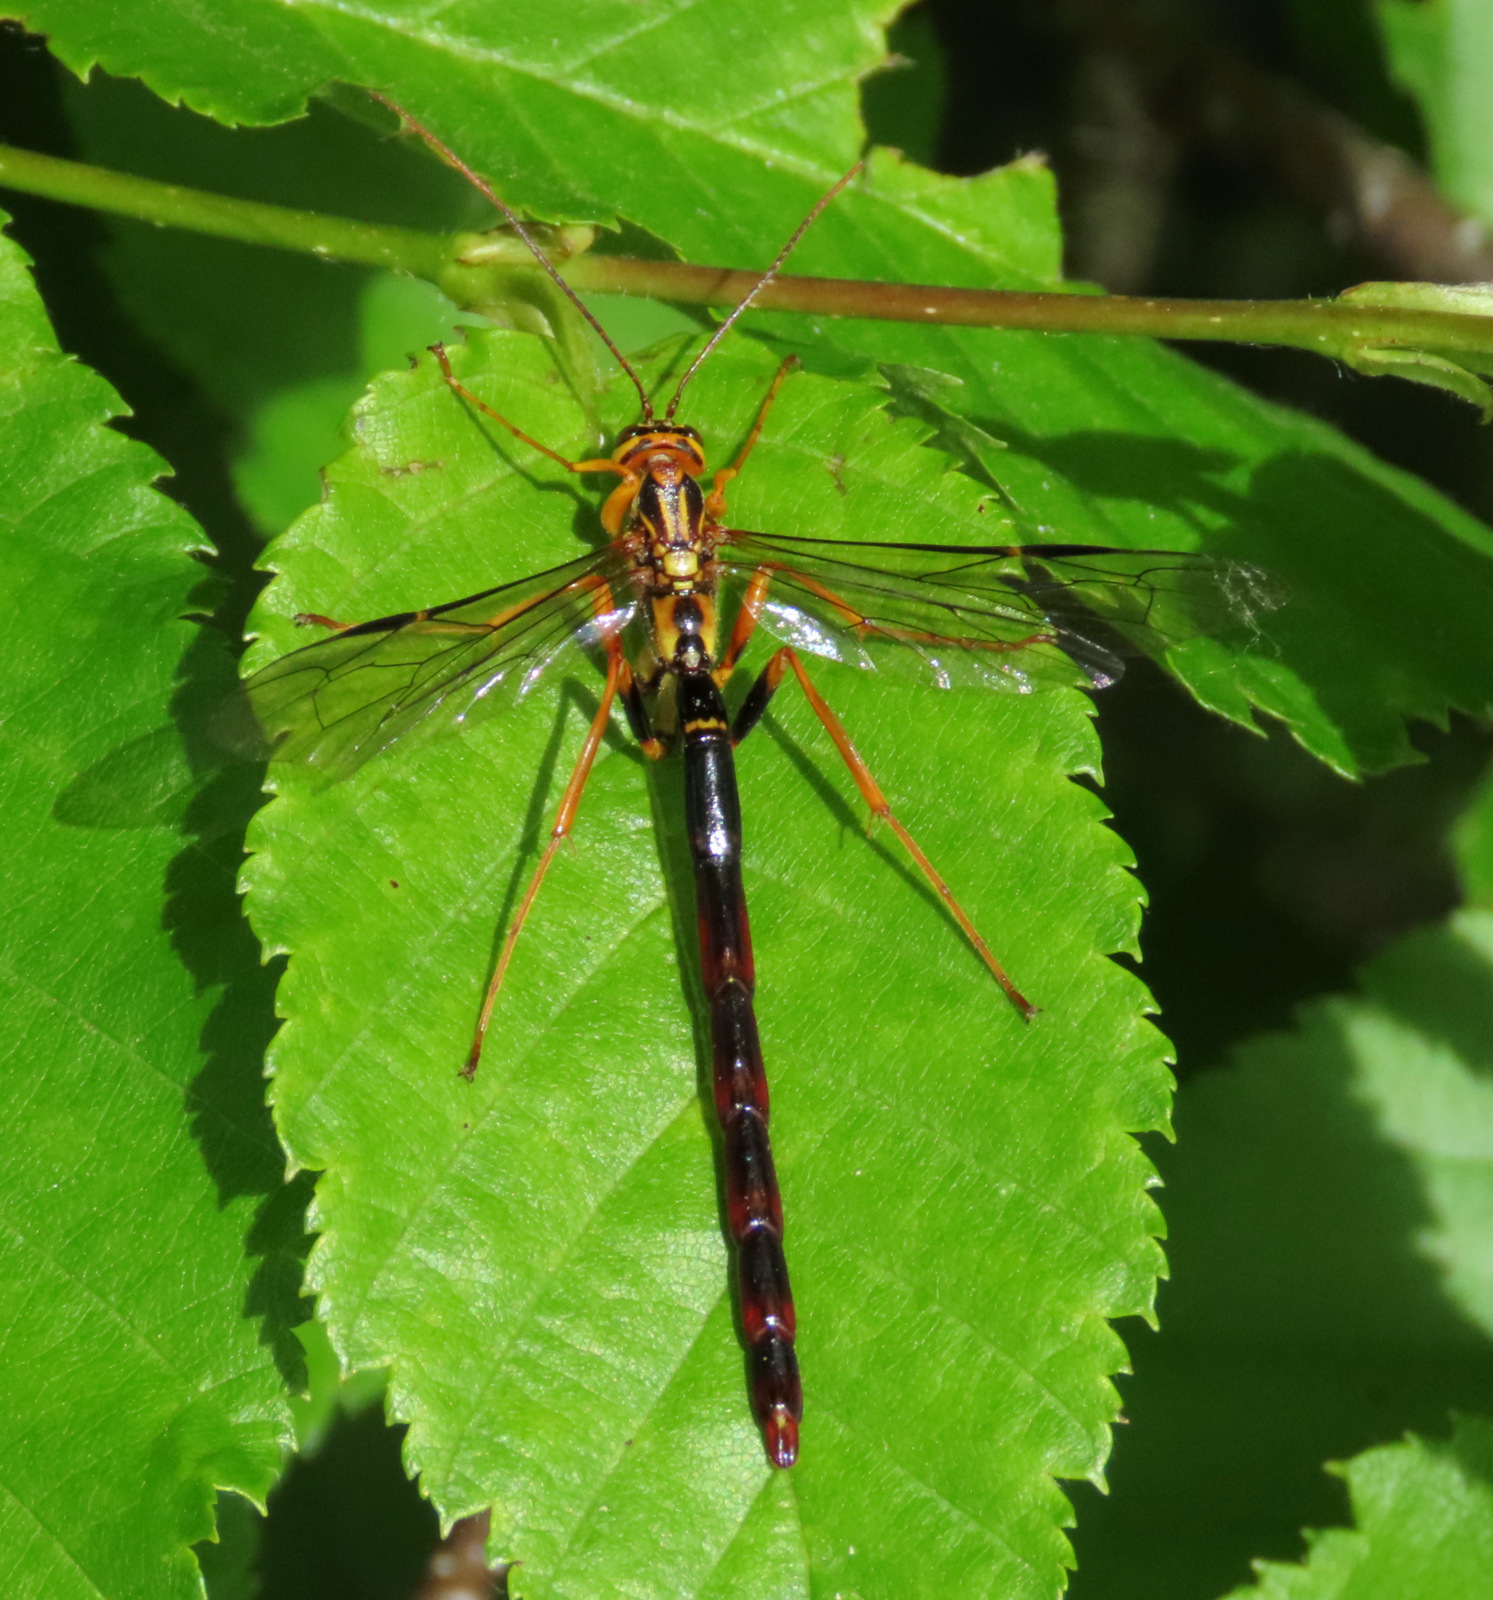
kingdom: Animalia
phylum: Arthropoda
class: Insecta
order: Hymenoptera
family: Ichneumonidae
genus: Megarhyssa
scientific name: Megarhyssa atrata
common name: Black giant ichneumonid wasp
